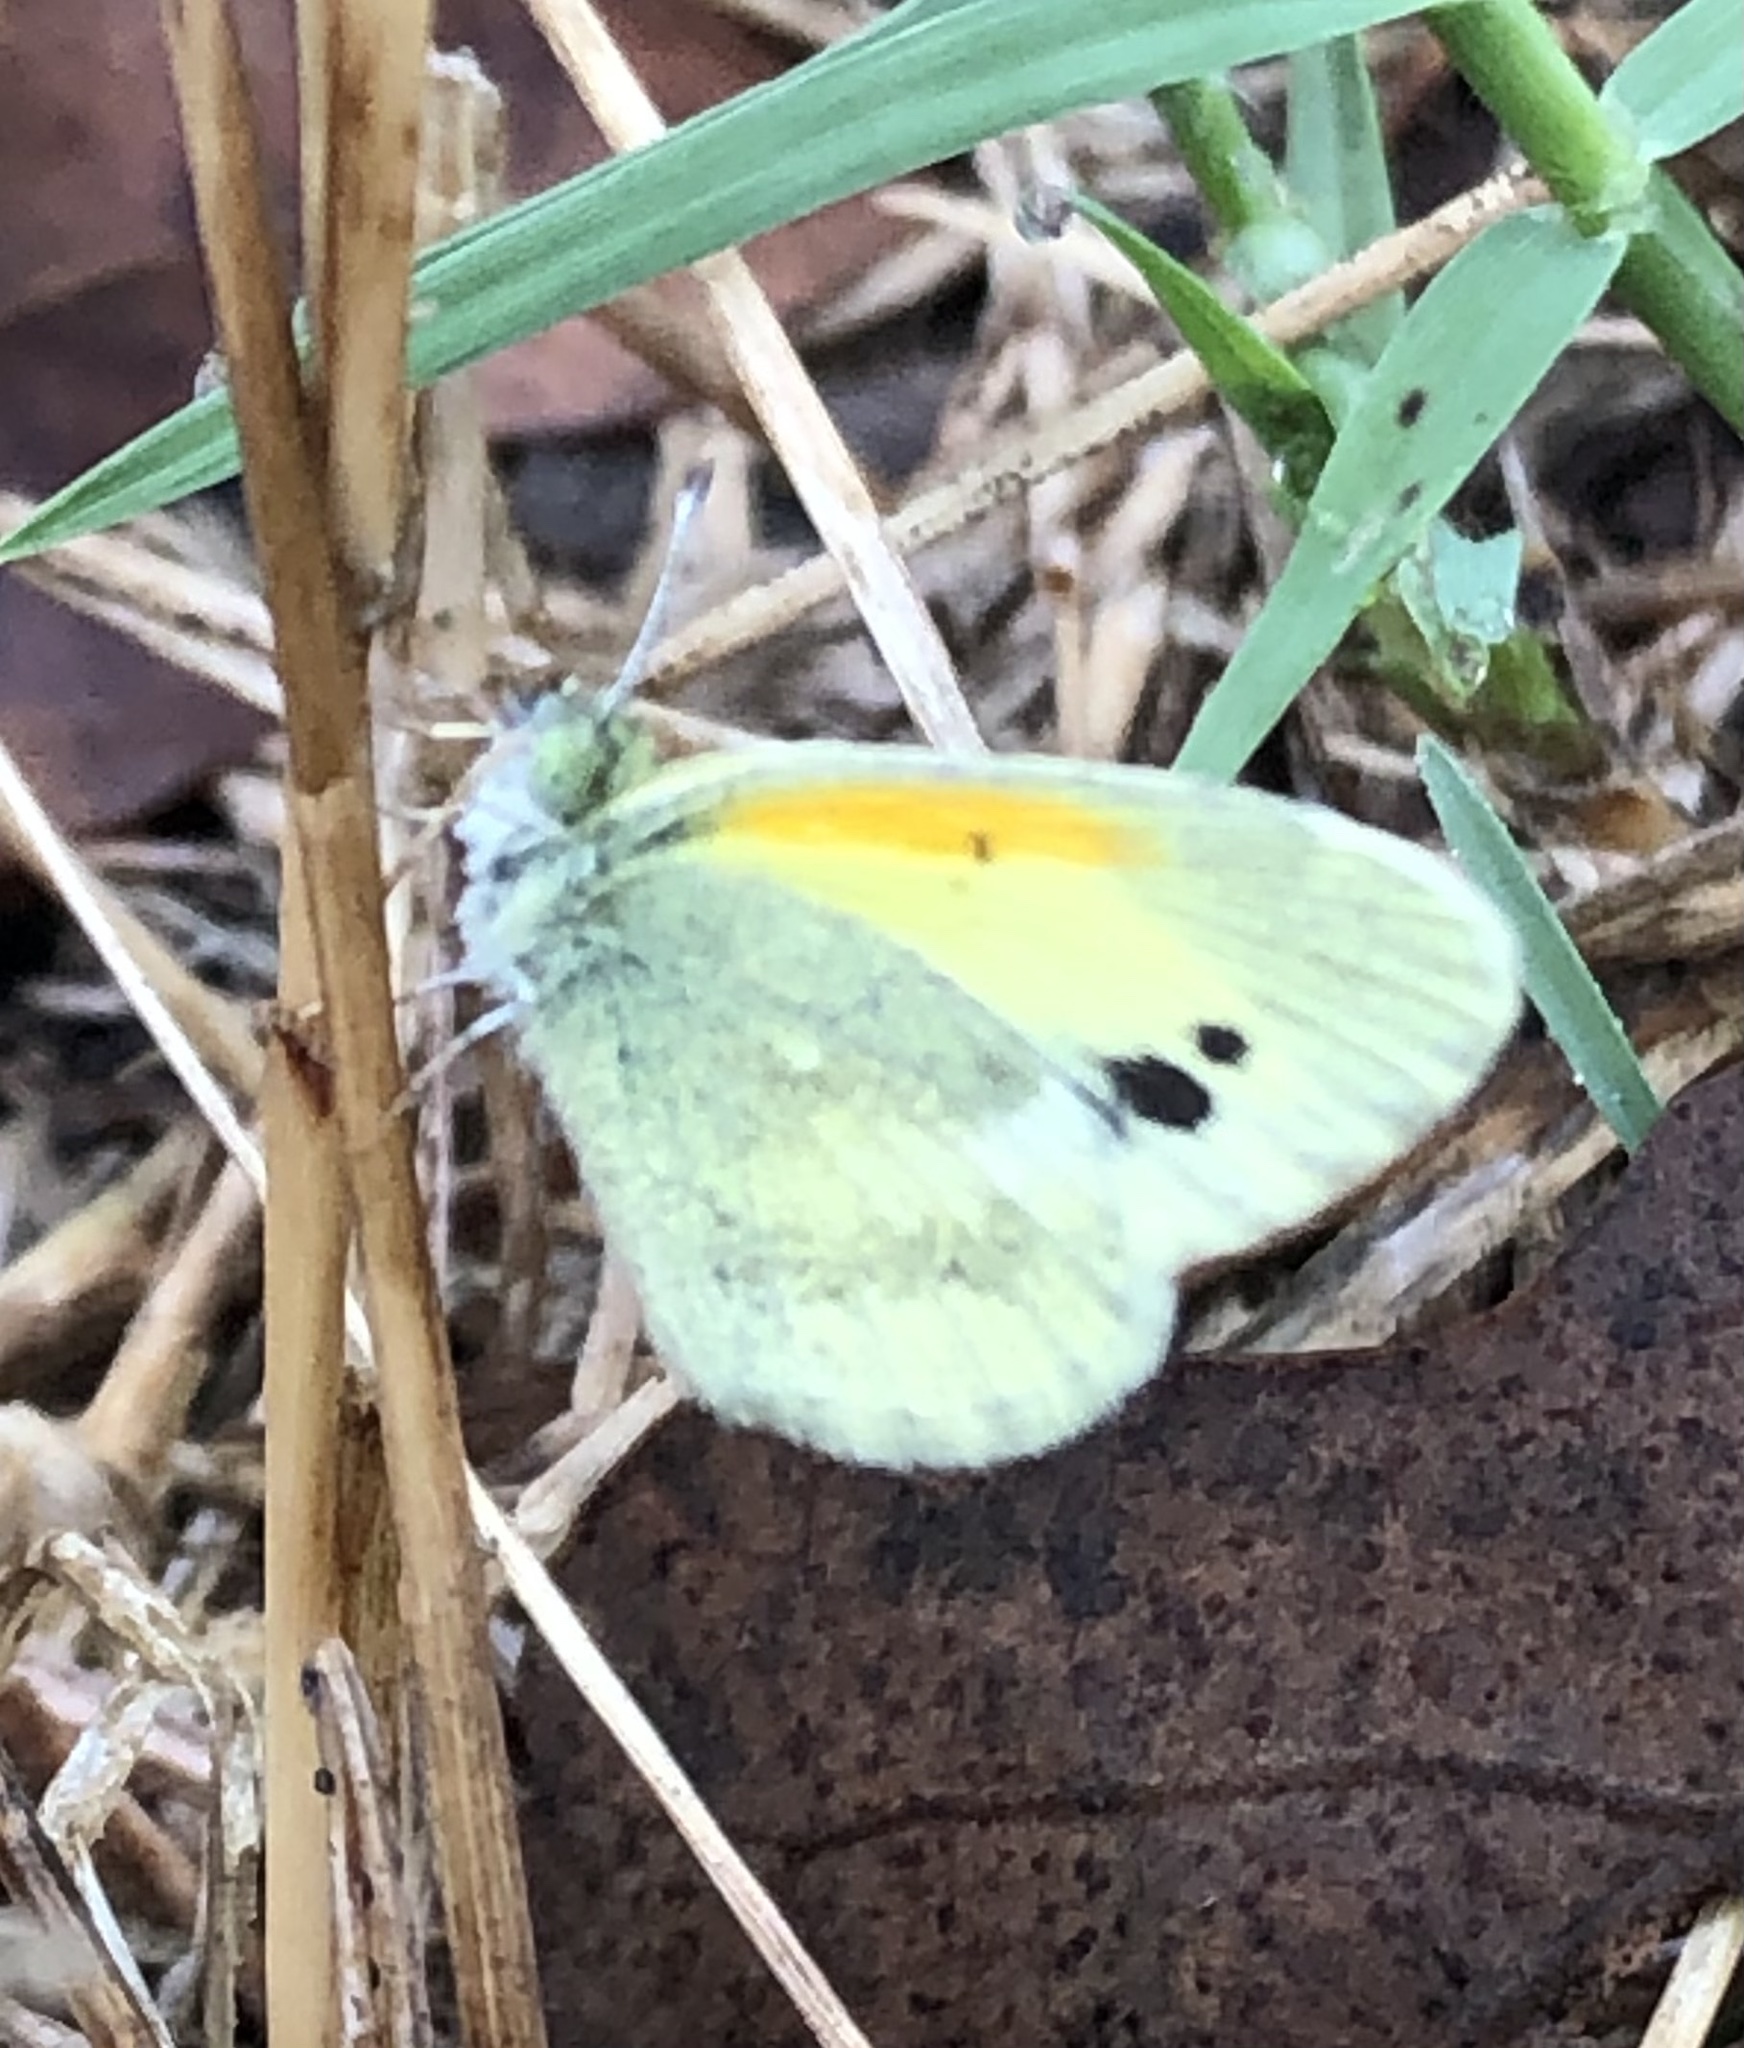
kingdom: Animalia
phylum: Arthropoda
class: Insecta
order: Lepidoptera
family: Pieridae
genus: Nathalis
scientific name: Nathalis iole
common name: Dainty sulphur
